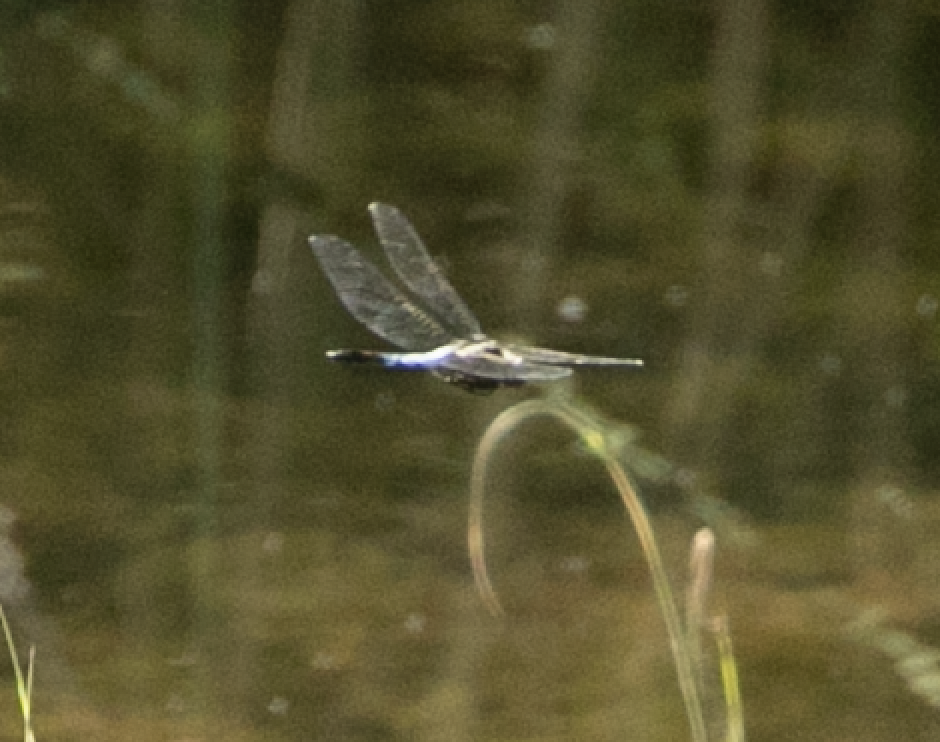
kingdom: Animalia
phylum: Arthropoda
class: Insecta
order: Odonata
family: Libellulidae
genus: Orthetrum
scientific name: Orthetrum albistylum
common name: White-tailed skimmer
